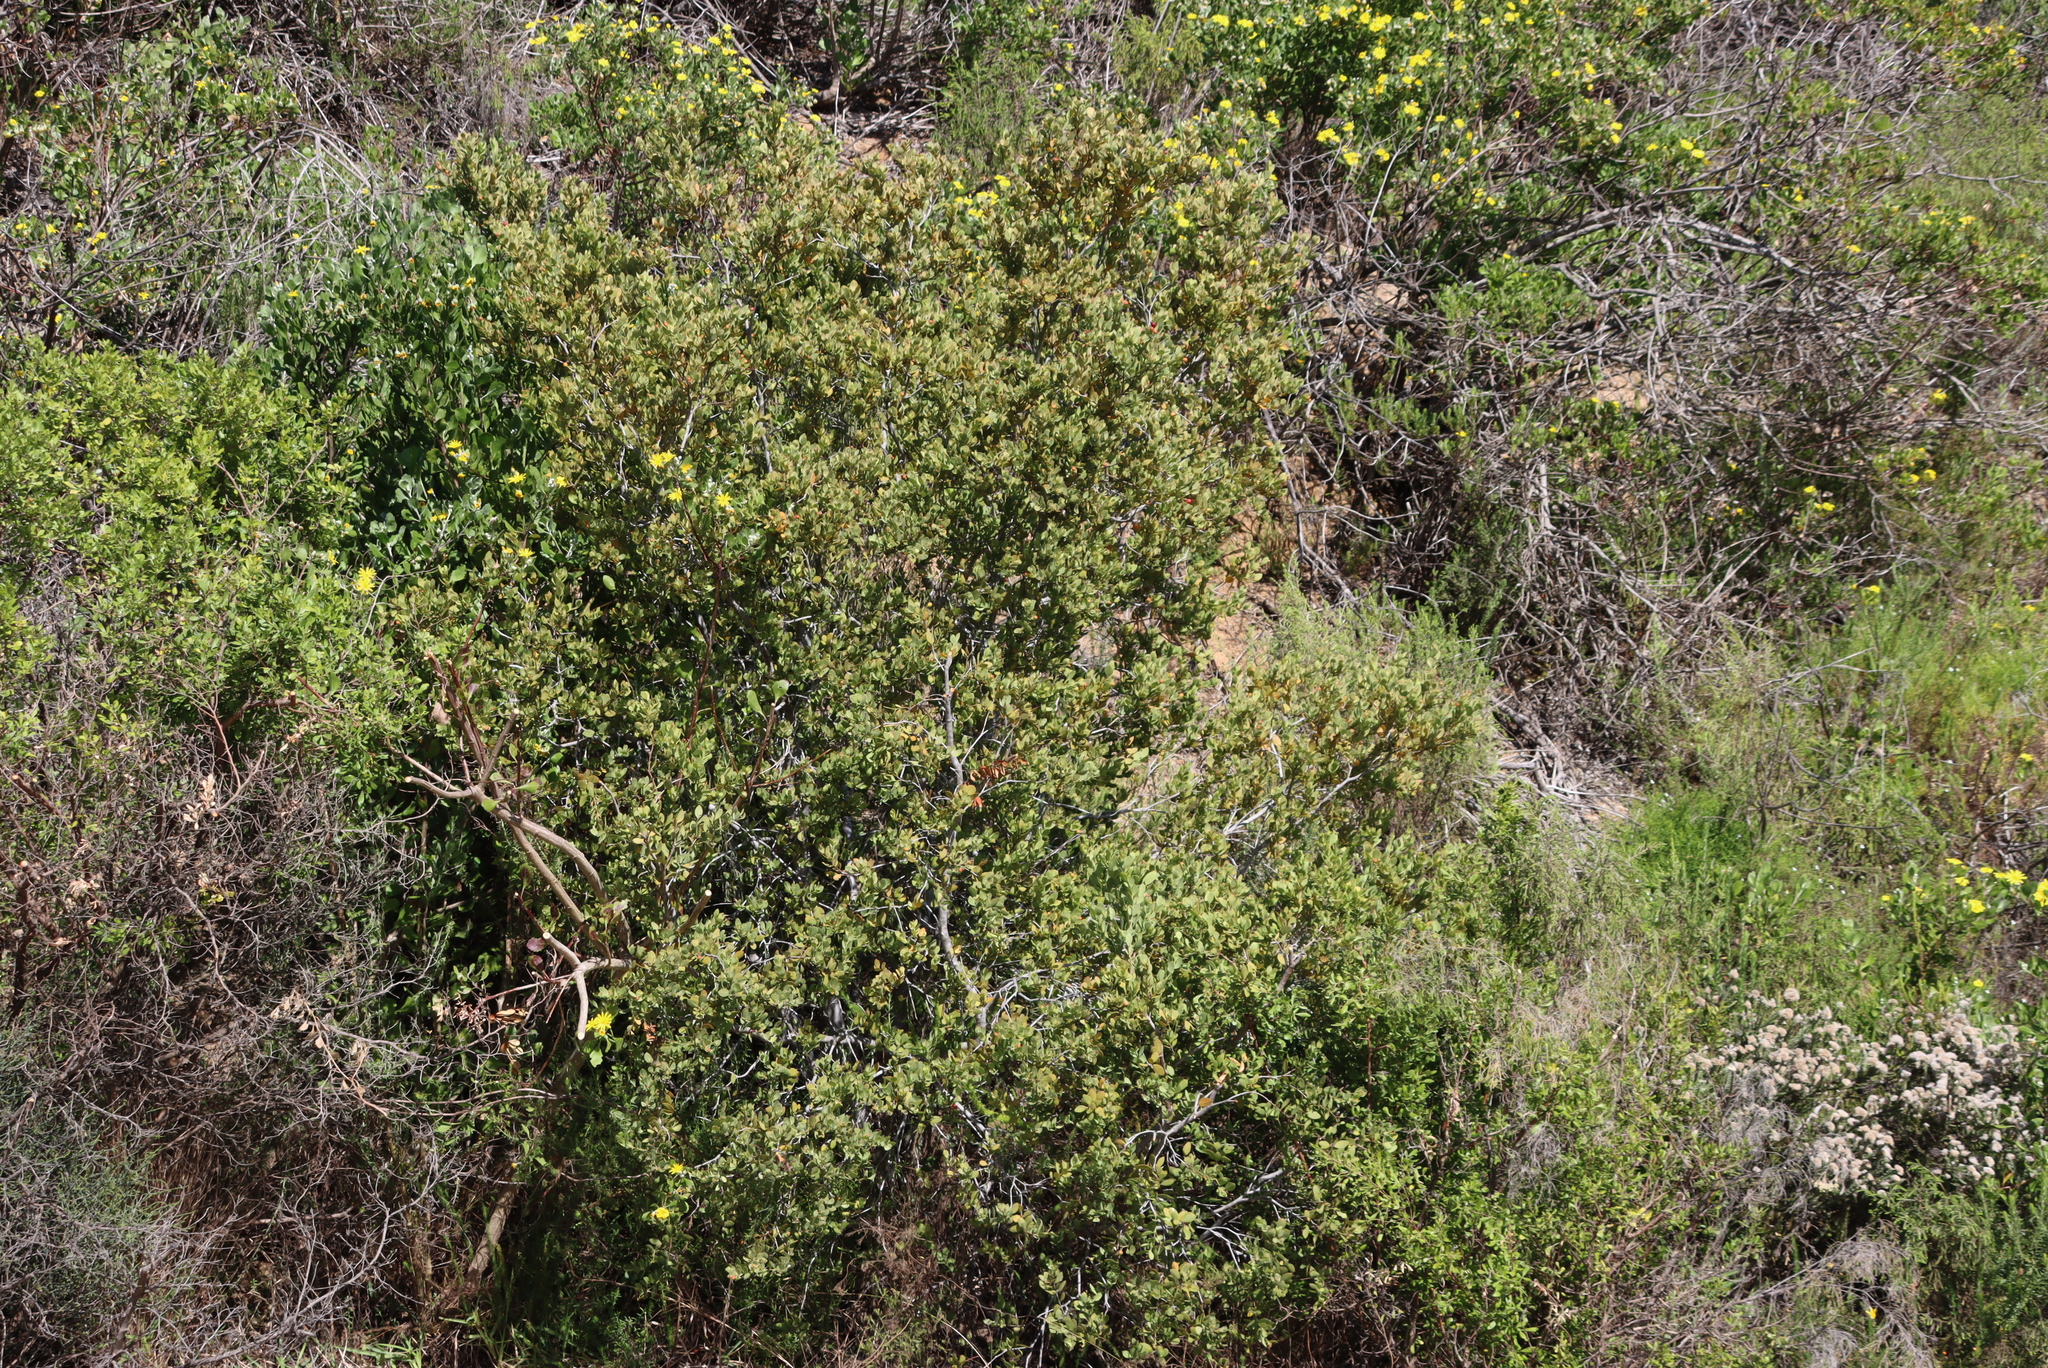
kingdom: Plantae
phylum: Tracheophyta
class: Magnoliopsida
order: Santalales
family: Santalaceae
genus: Osyris
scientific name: Osyris compressa
